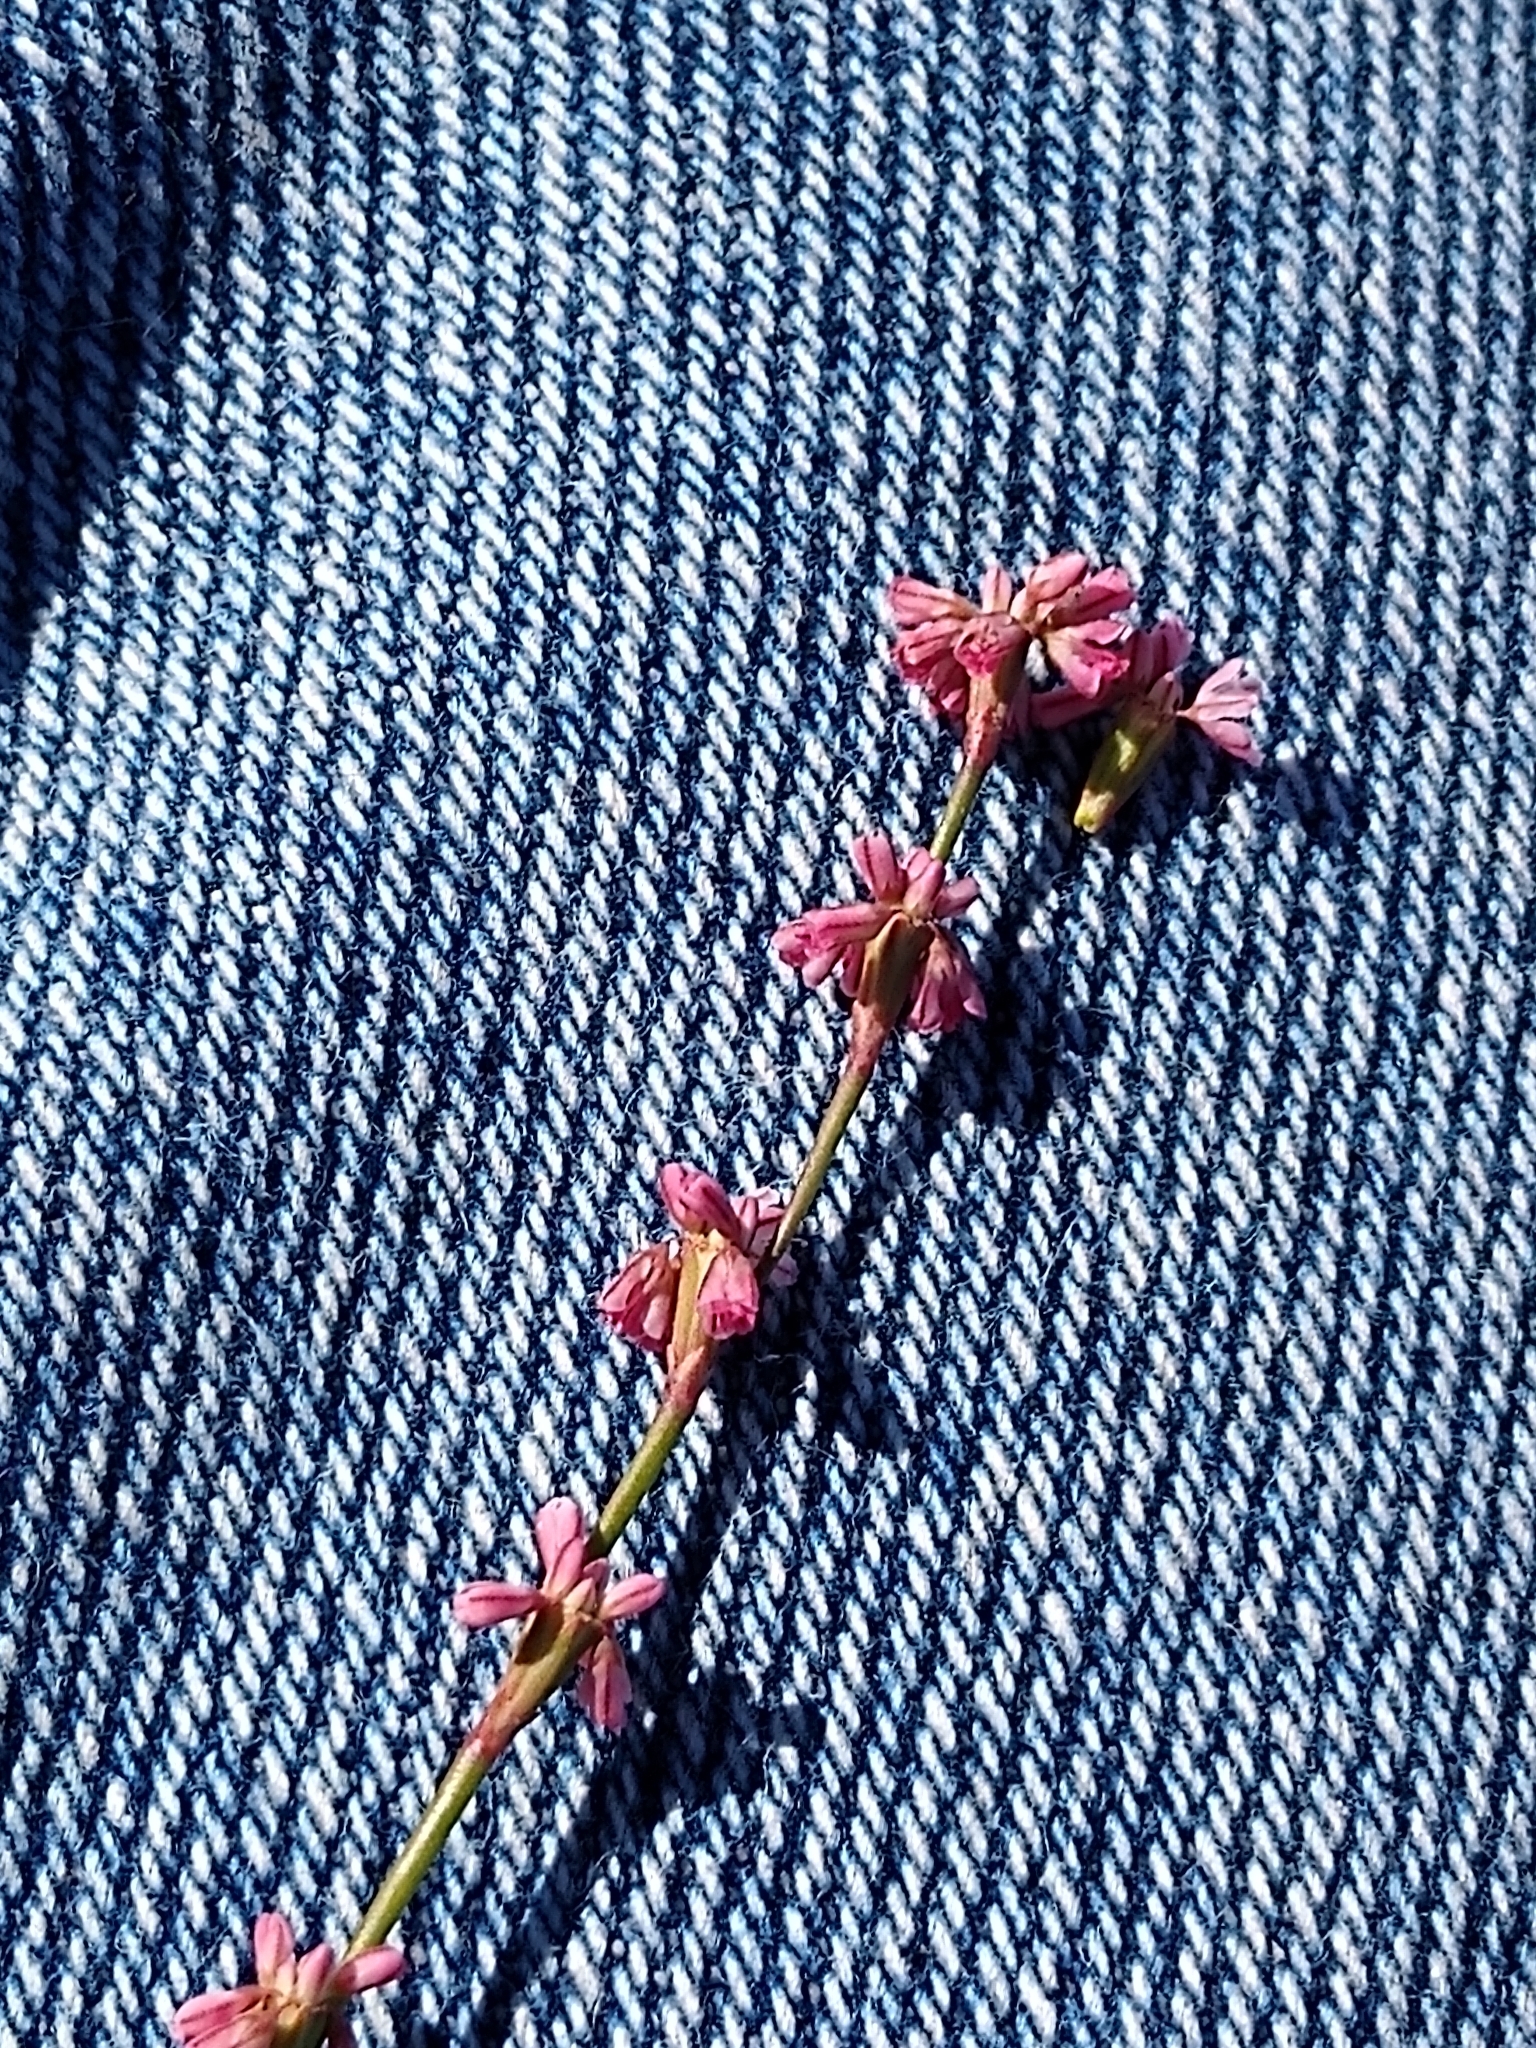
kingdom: Plantae
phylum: Tracheophyta
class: Magnoliopsida
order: Caryophyllales
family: Polygonaceae
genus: Eriogonum
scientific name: Eriogonum luteolum
